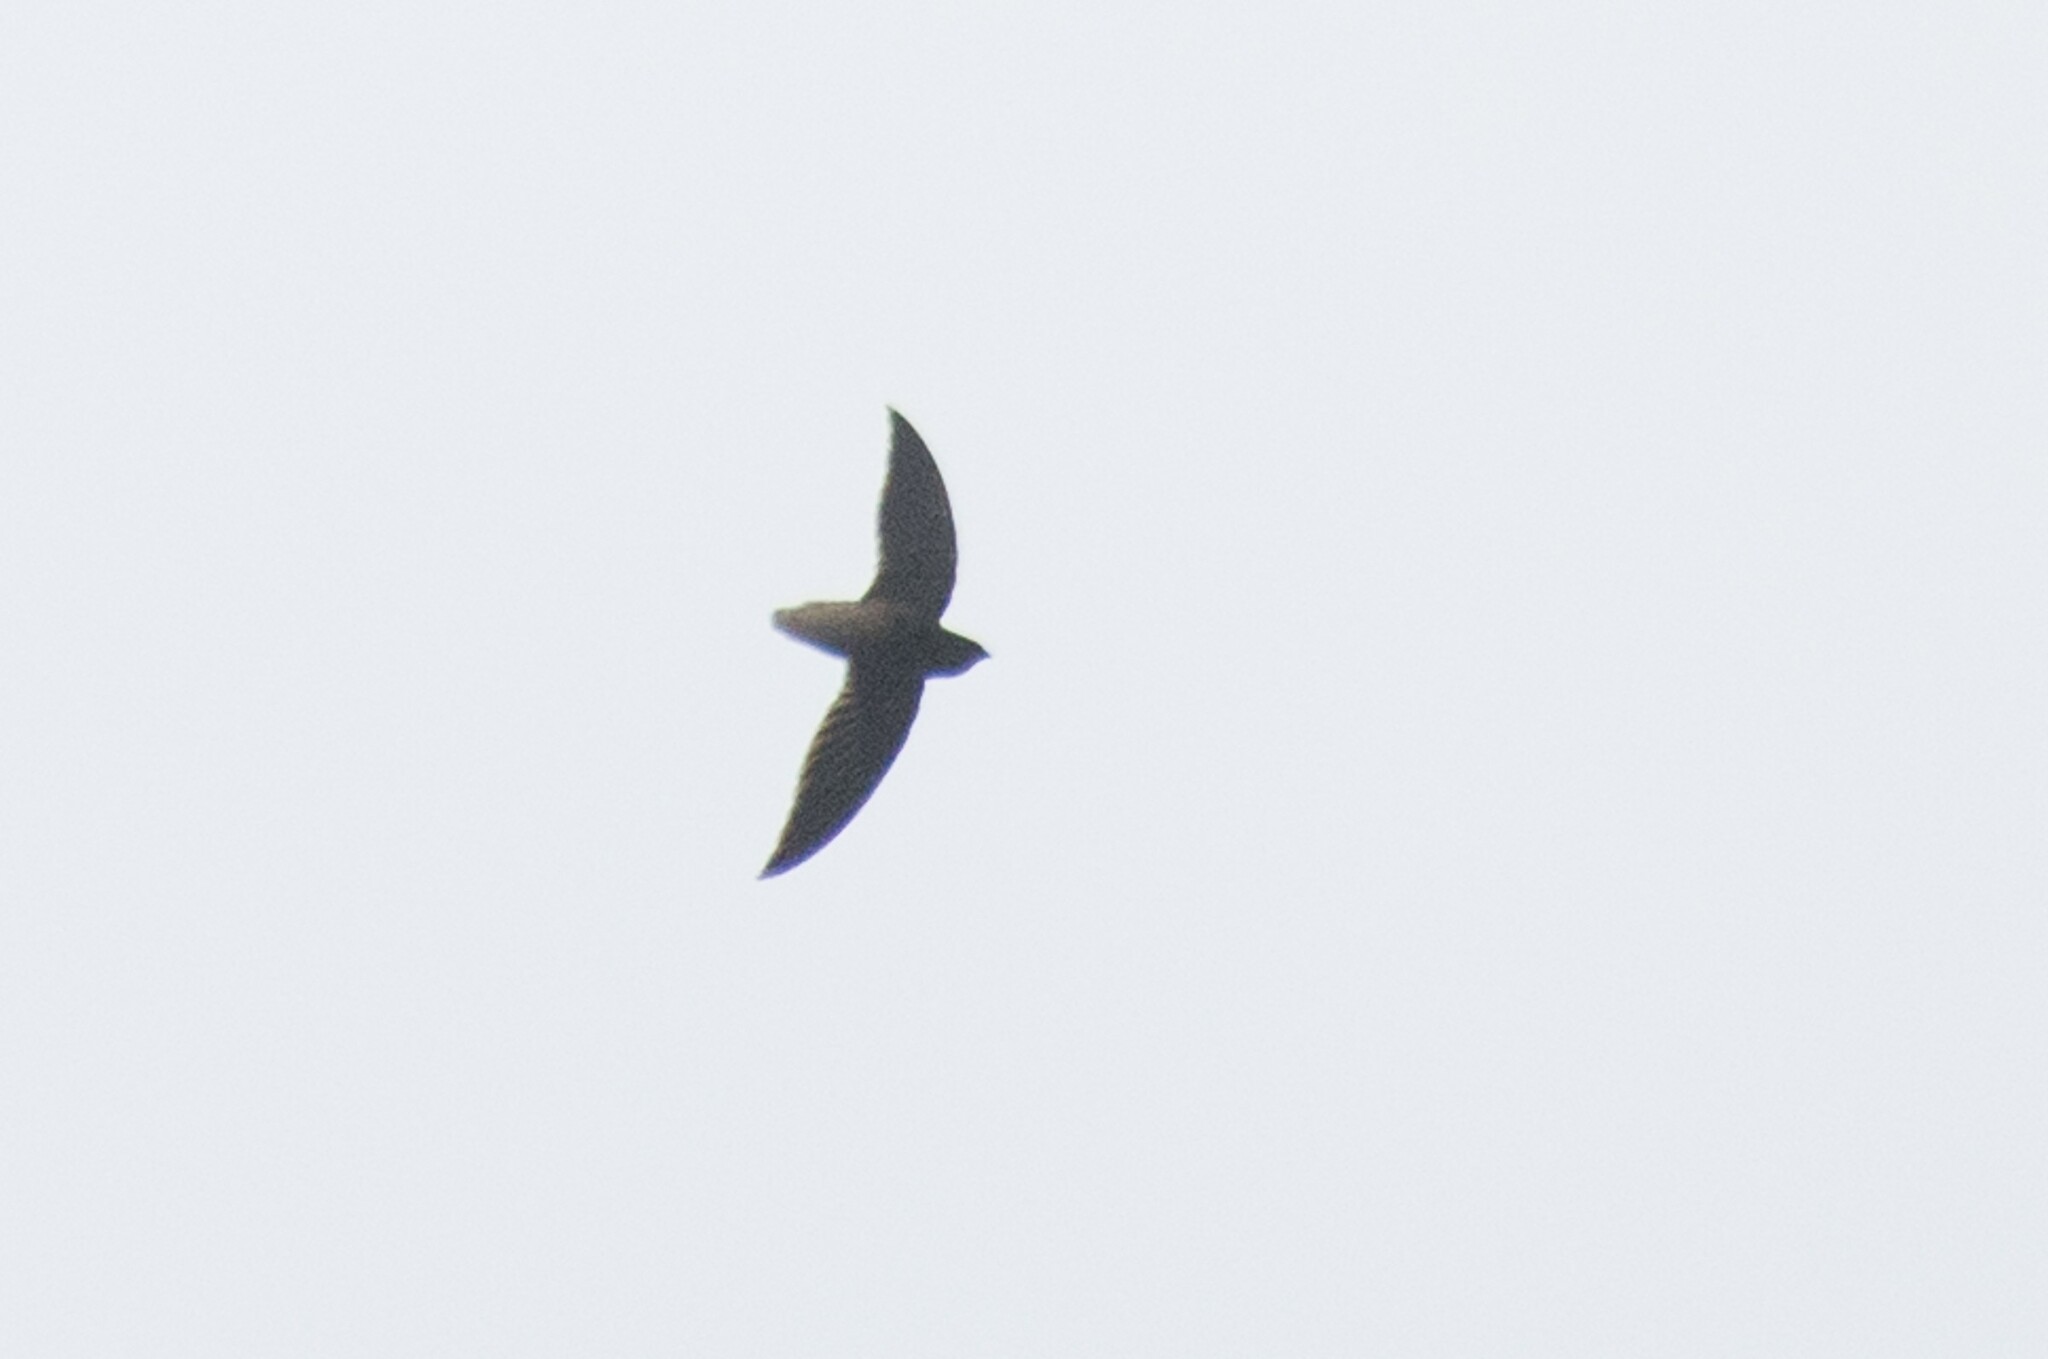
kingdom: Animalia
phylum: Chordata
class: Aves
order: Apodiformes
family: Apodidae
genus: Chaetura
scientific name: Chaetura brachyura
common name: Short-tailed swift
